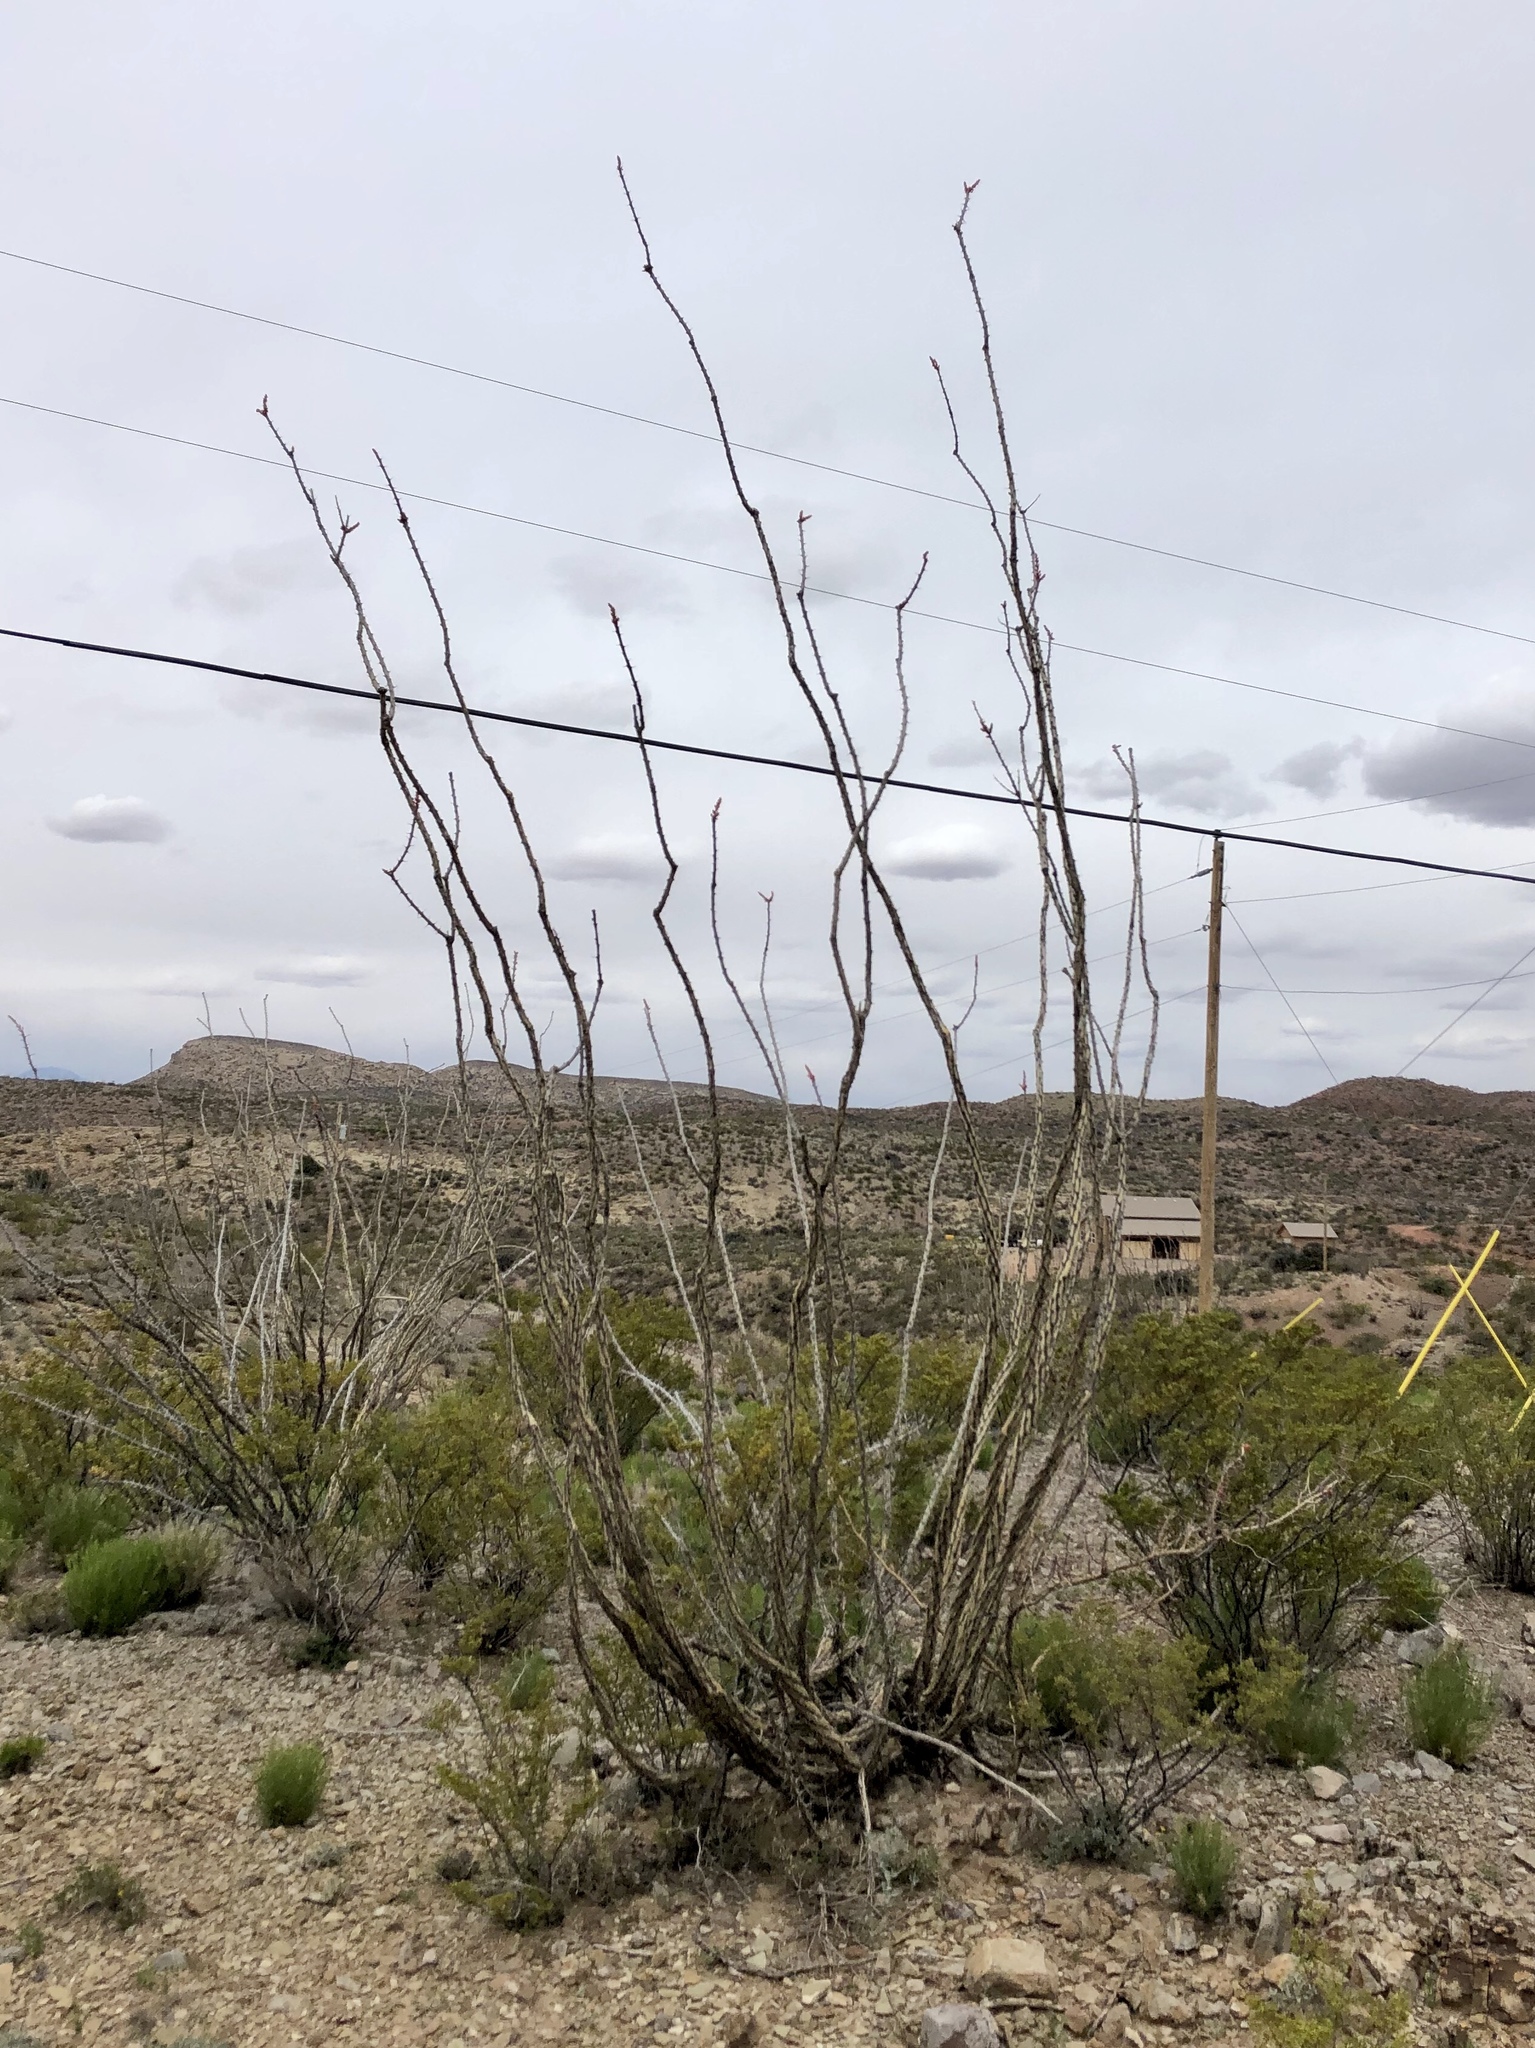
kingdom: Plantae
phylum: Tracheophyta
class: Magnoliopsida
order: Ericales
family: Fouquieriaceae
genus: Fouquieria
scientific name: Fouquieria splendens
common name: Vine-cactus
